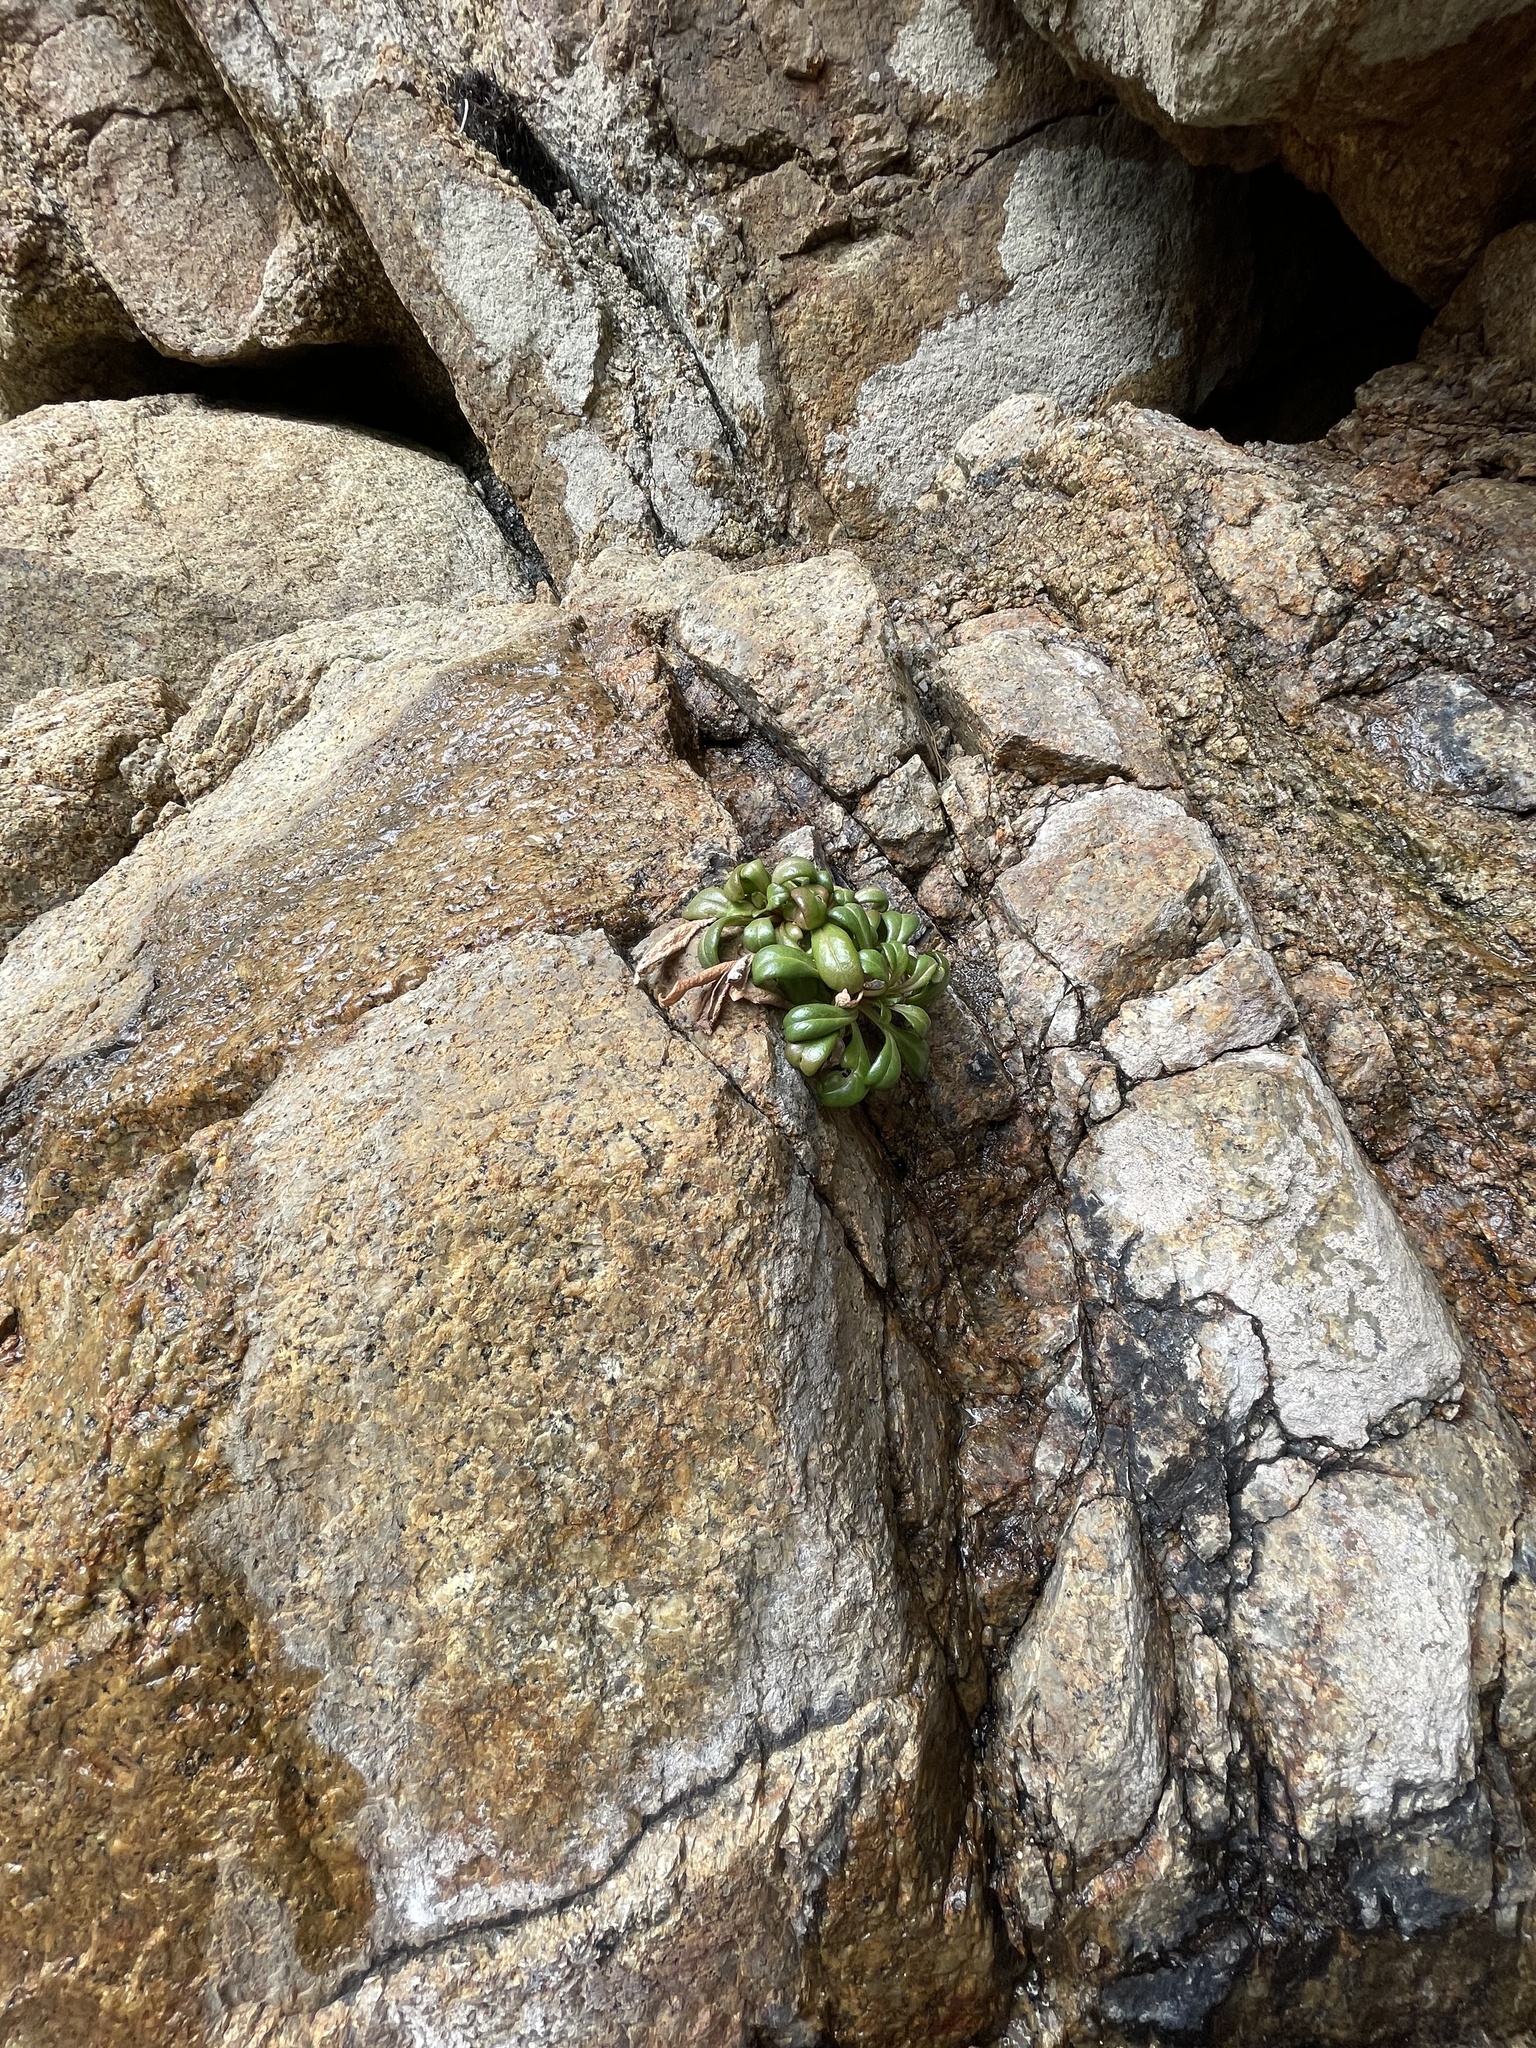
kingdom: Plantae
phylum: Tracheophyta
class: Magnoliopsida
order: Ericales
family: Primulaceae
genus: Lysimachia
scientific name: Lysimachia mauritiana
